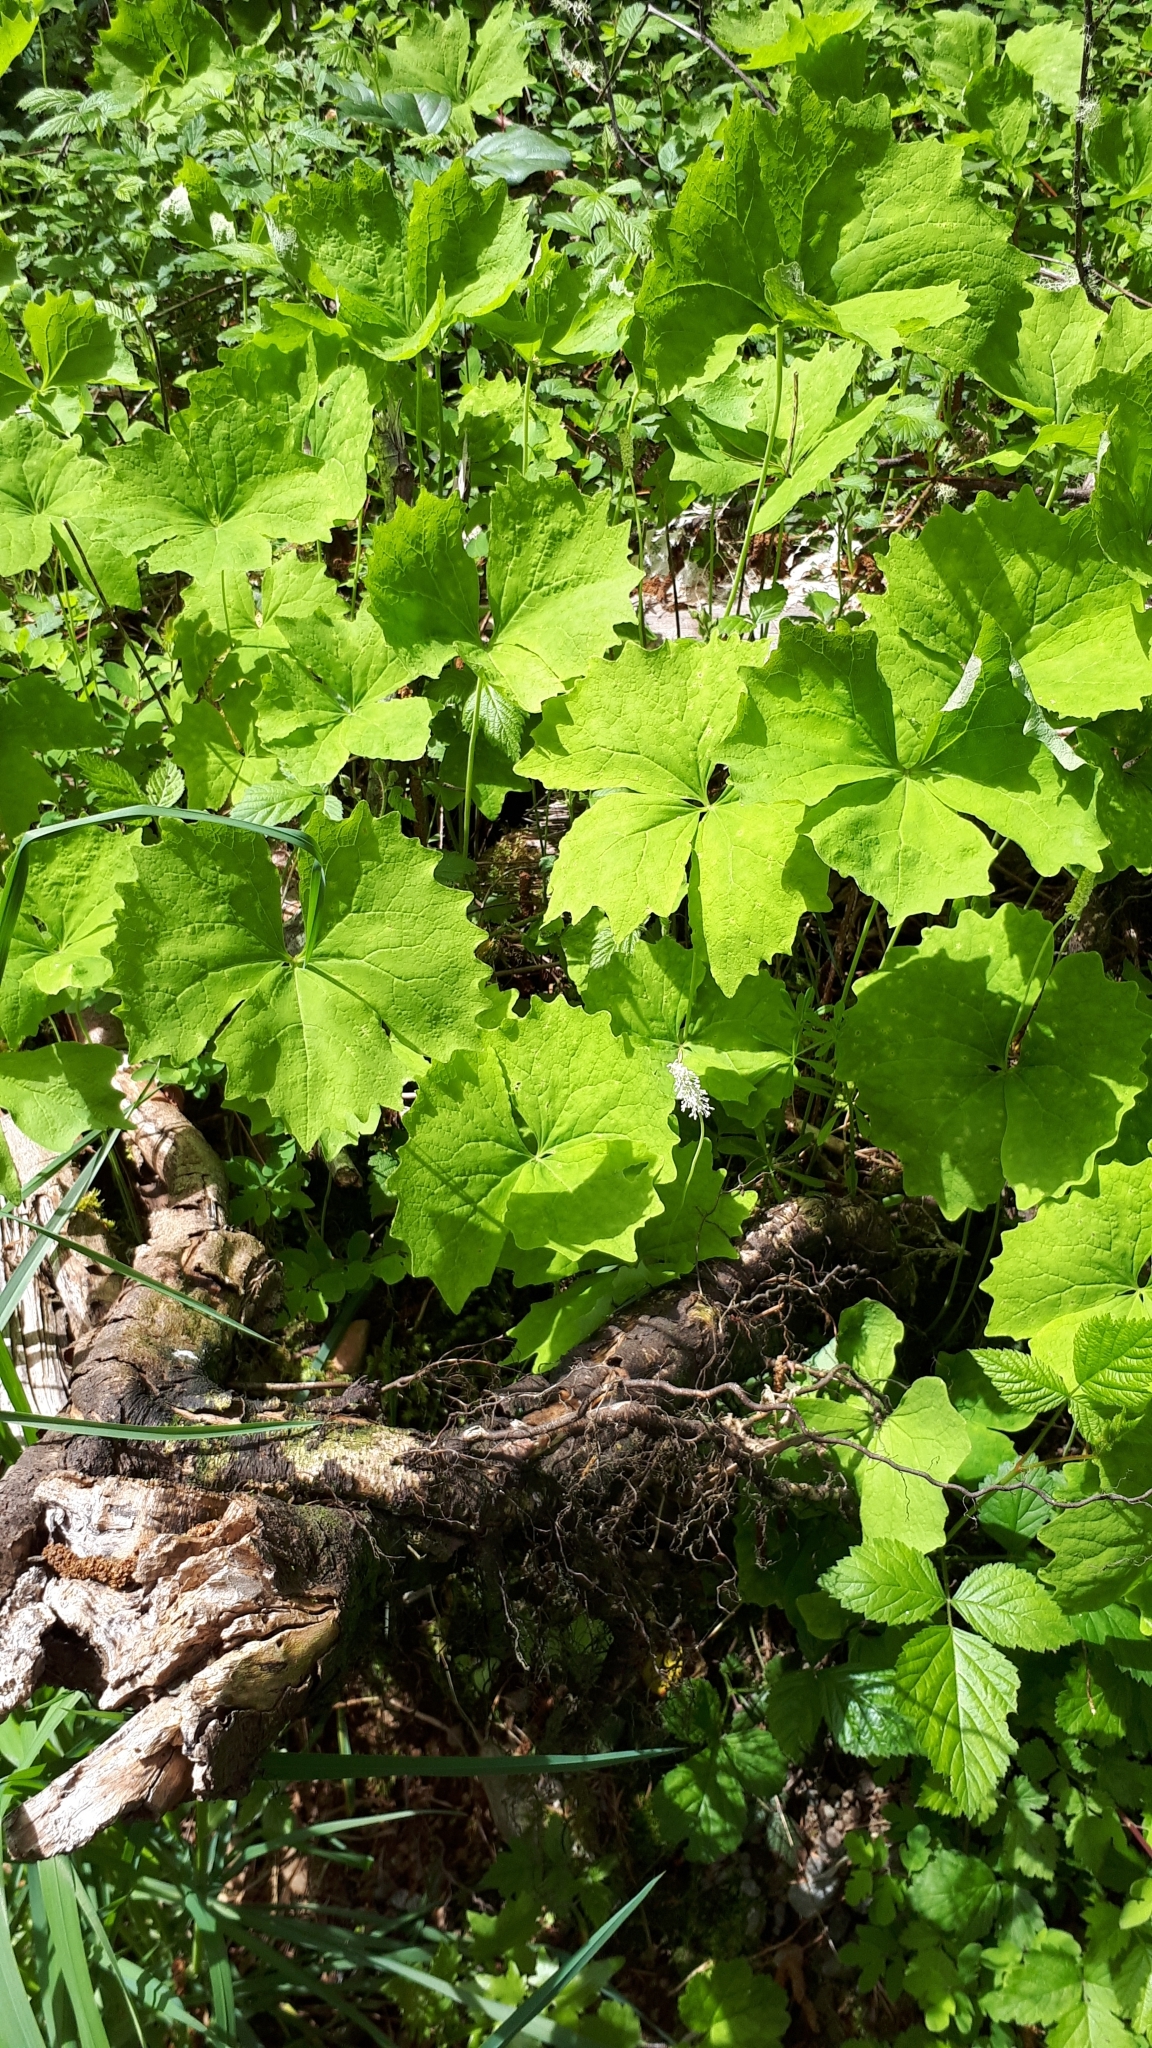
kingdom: Plantae
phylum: Tracheophyta
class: Magnoliopsida
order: Ranunculales
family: Berberidaceae
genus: Achlys
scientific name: Achlys triphylla
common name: Vanilla-leaf
